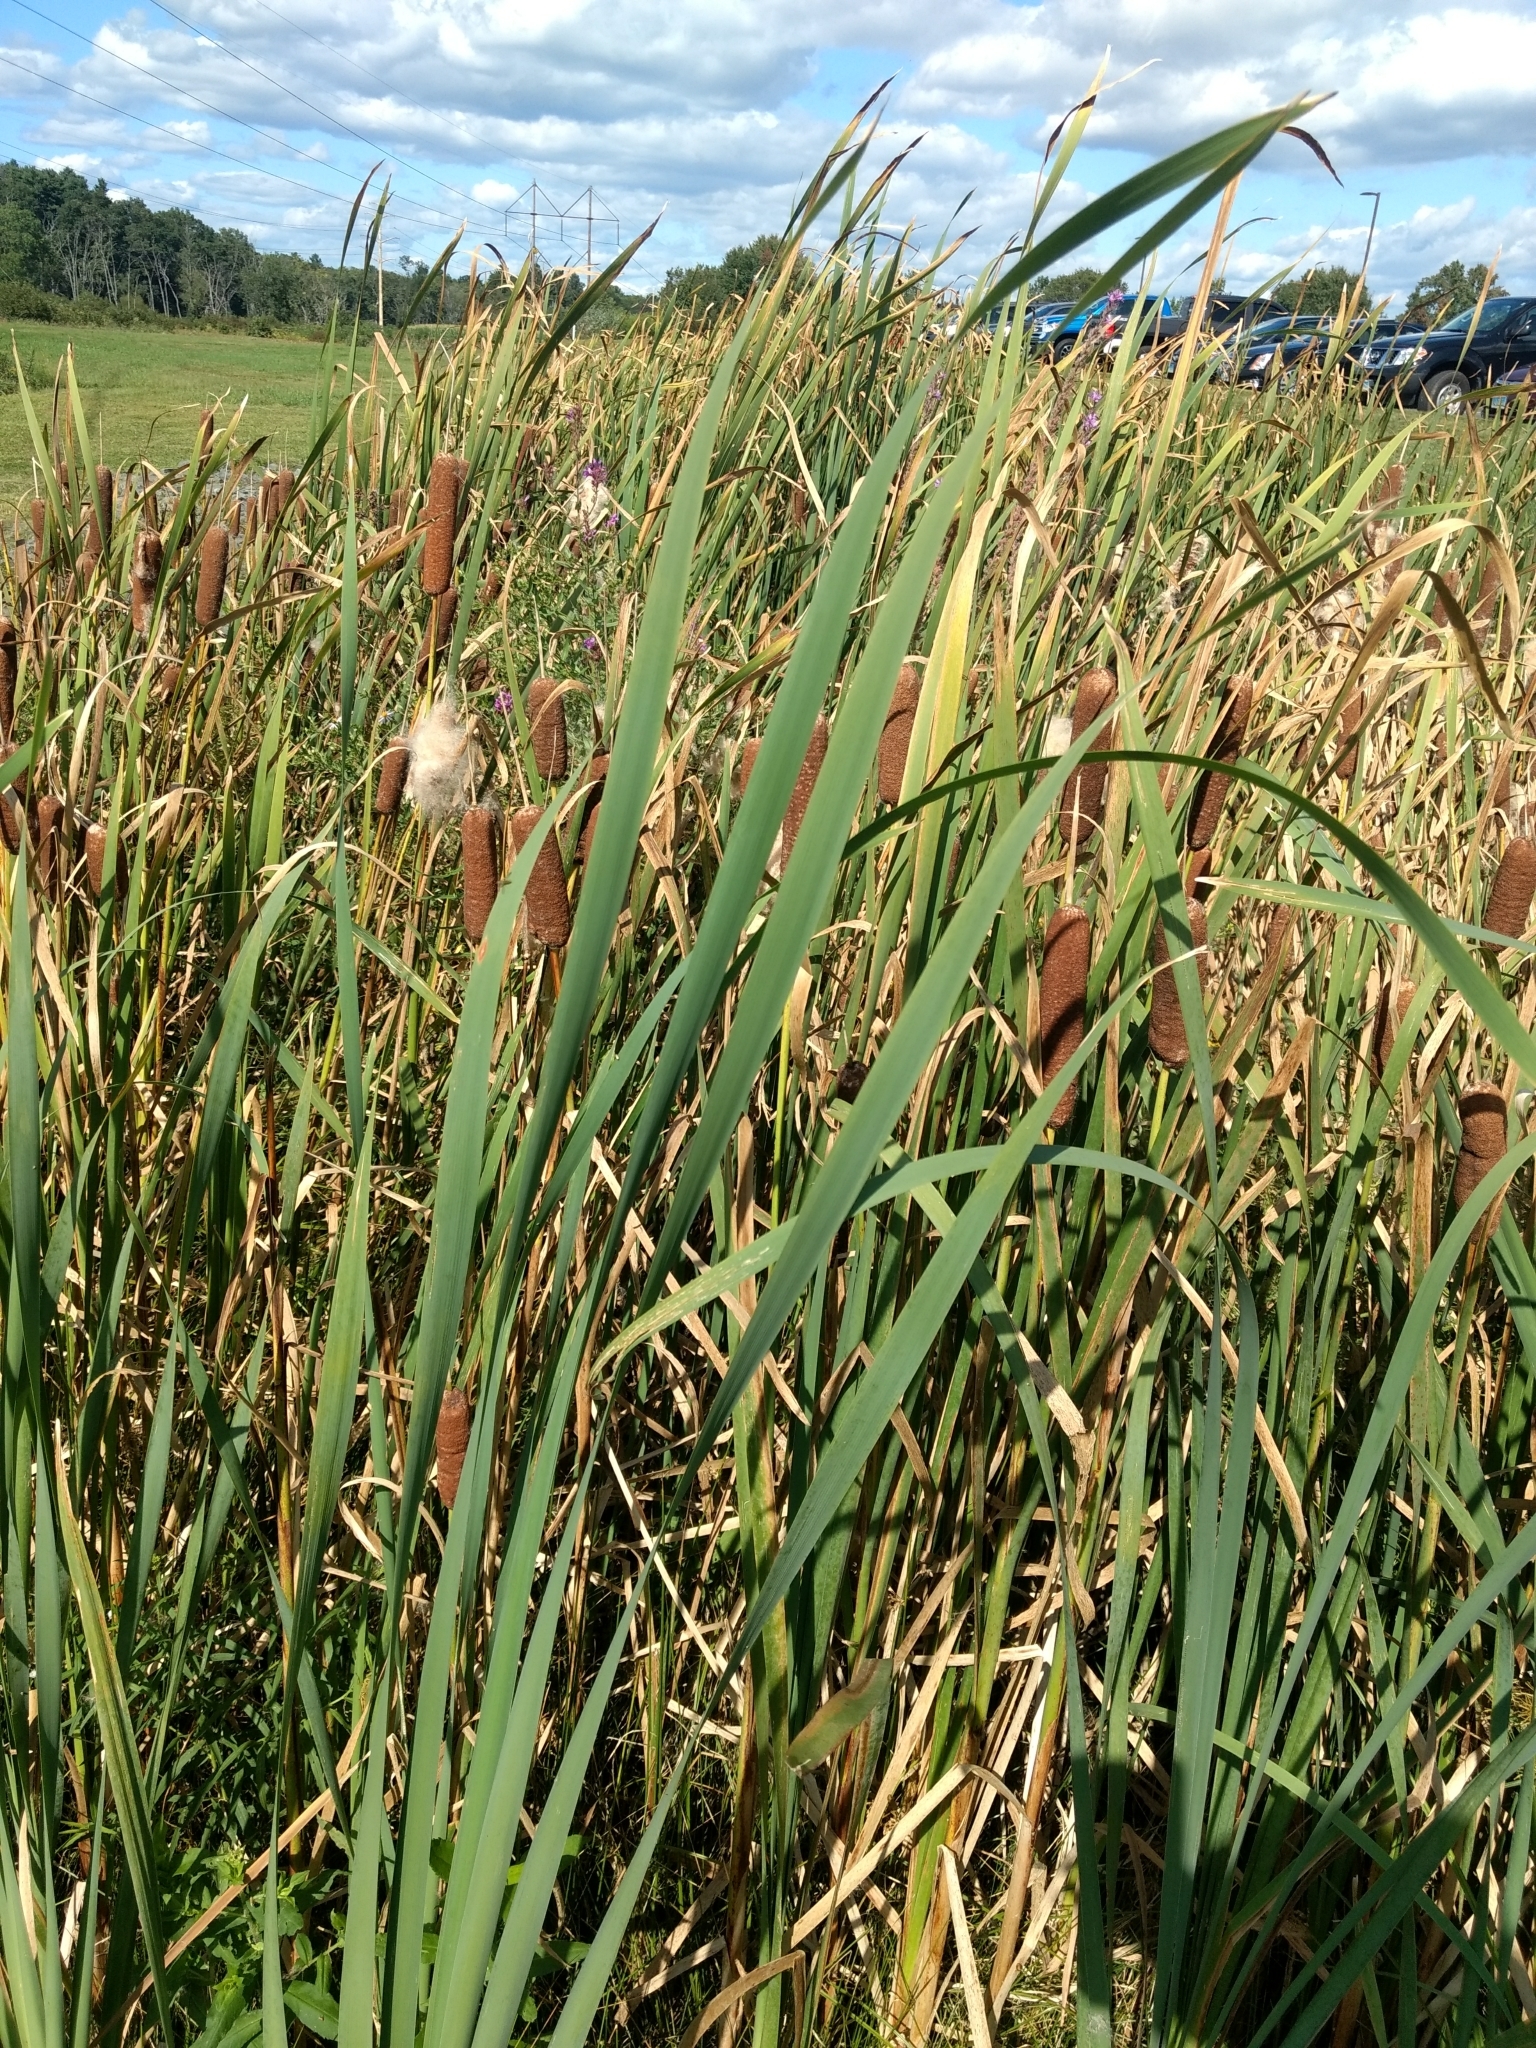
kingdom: Plantae
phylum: Tracheophyta
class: Liliopsida
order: Poales
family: Typhaceae
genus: Typha
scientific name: Typha latifolia
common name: Broadleaf cattail
